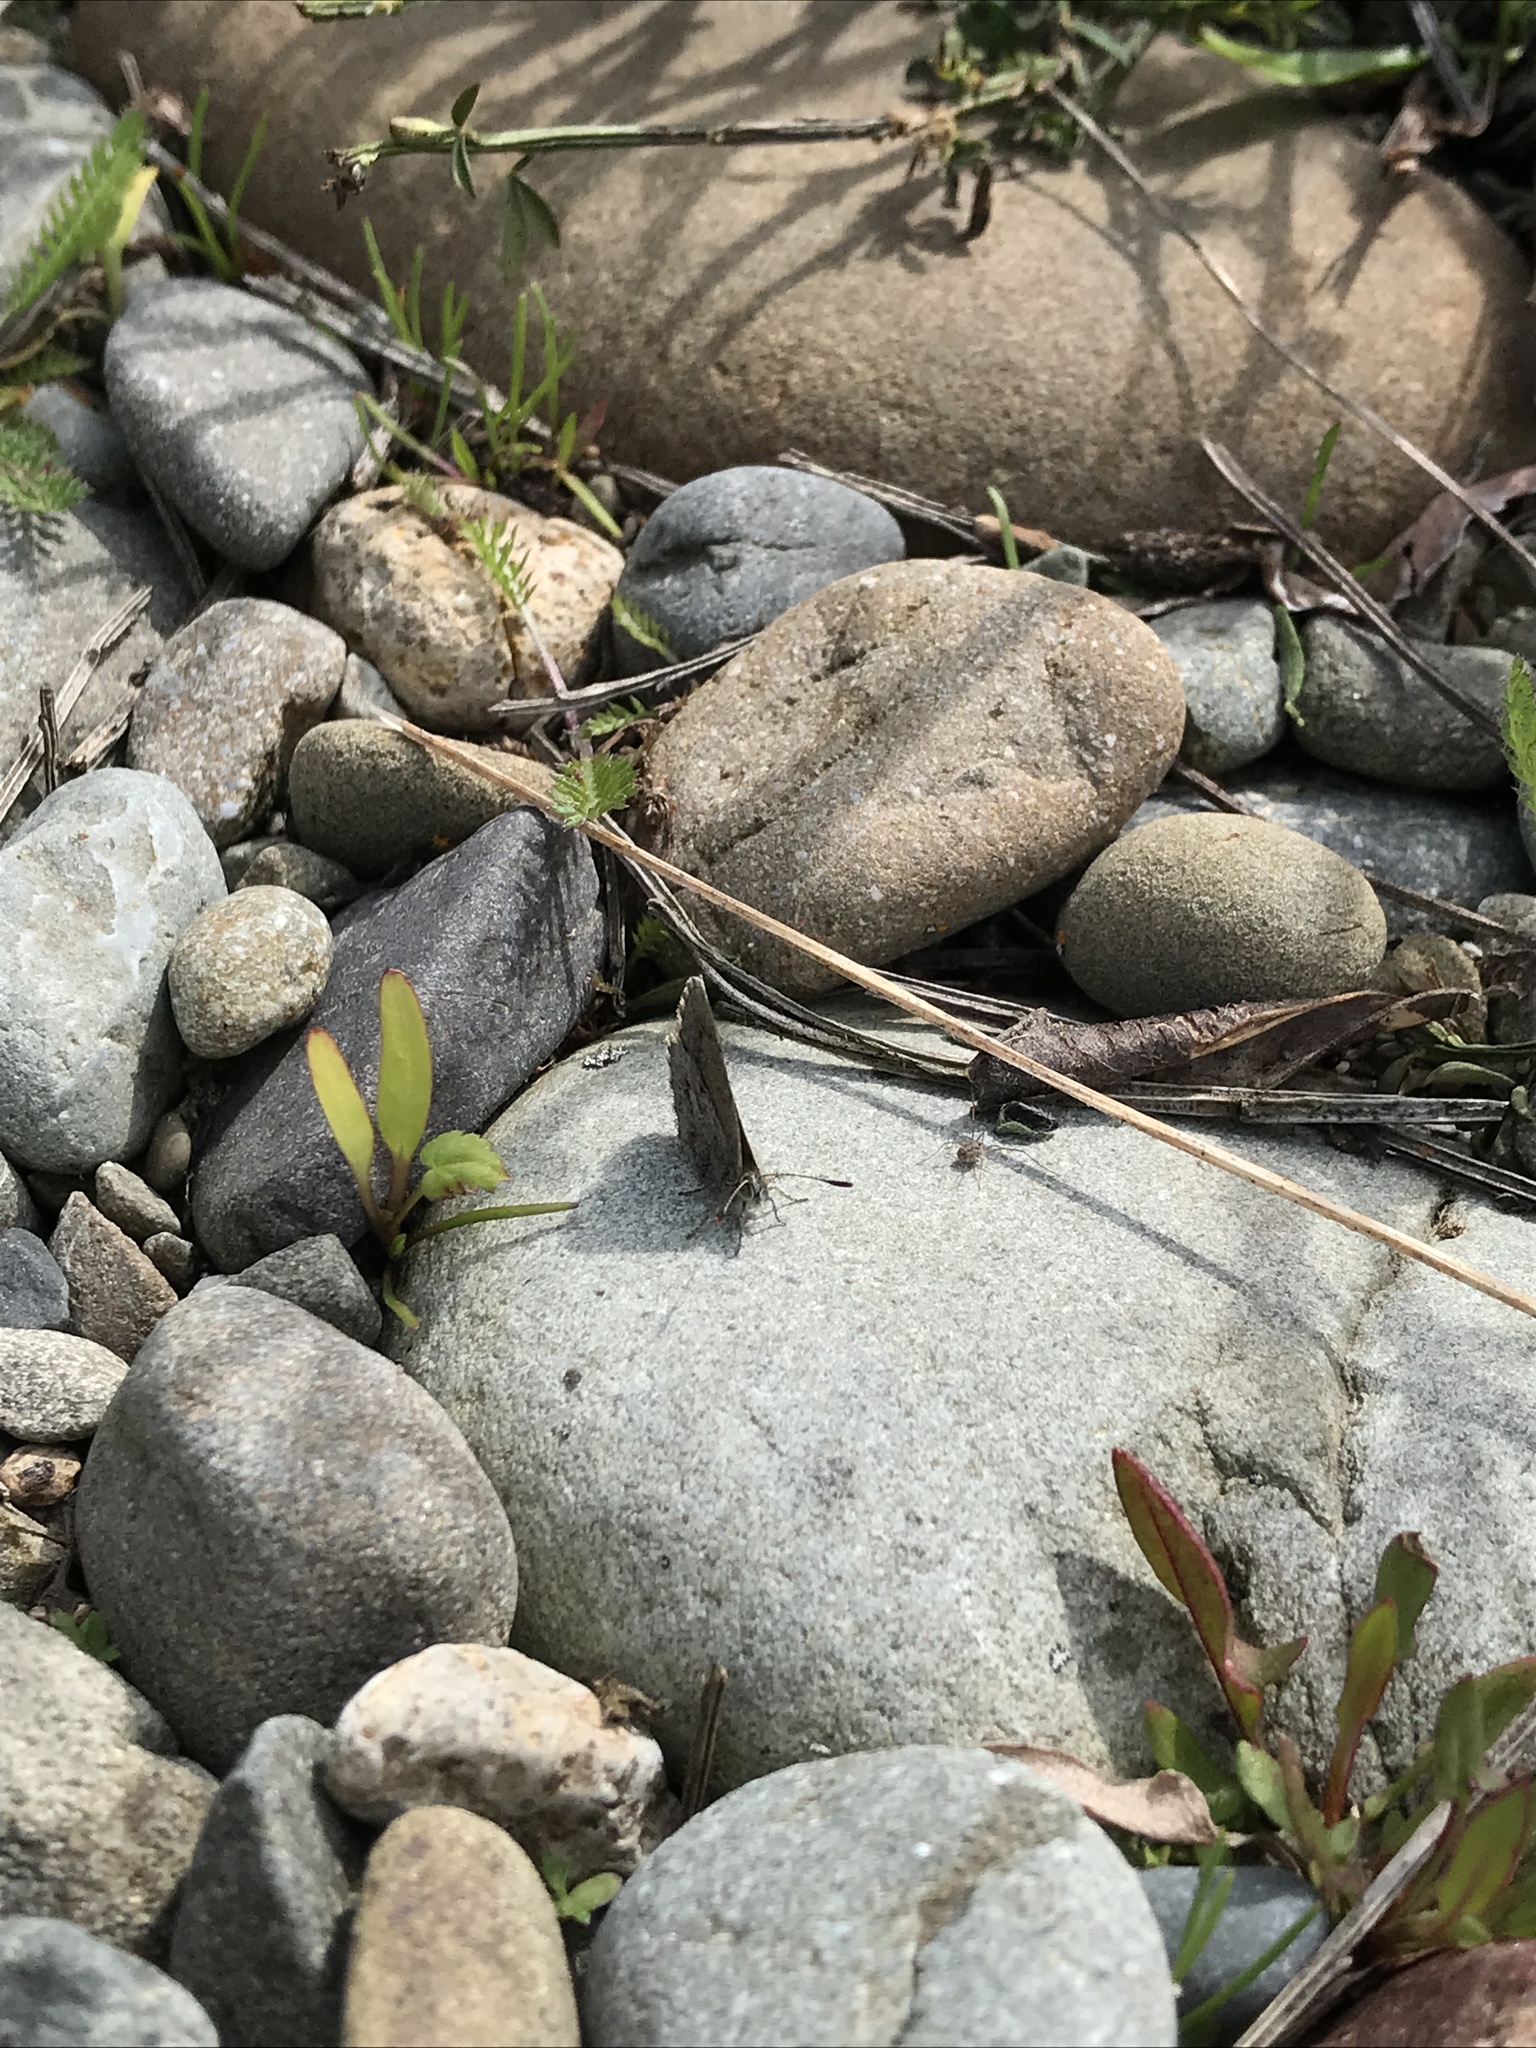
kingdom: Animalia
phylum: Arthropoda
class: Insecta
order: Lepidoptera
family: Lycaenidae
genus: Zizina
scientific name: Zizina oxleyi
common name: Southern blue
